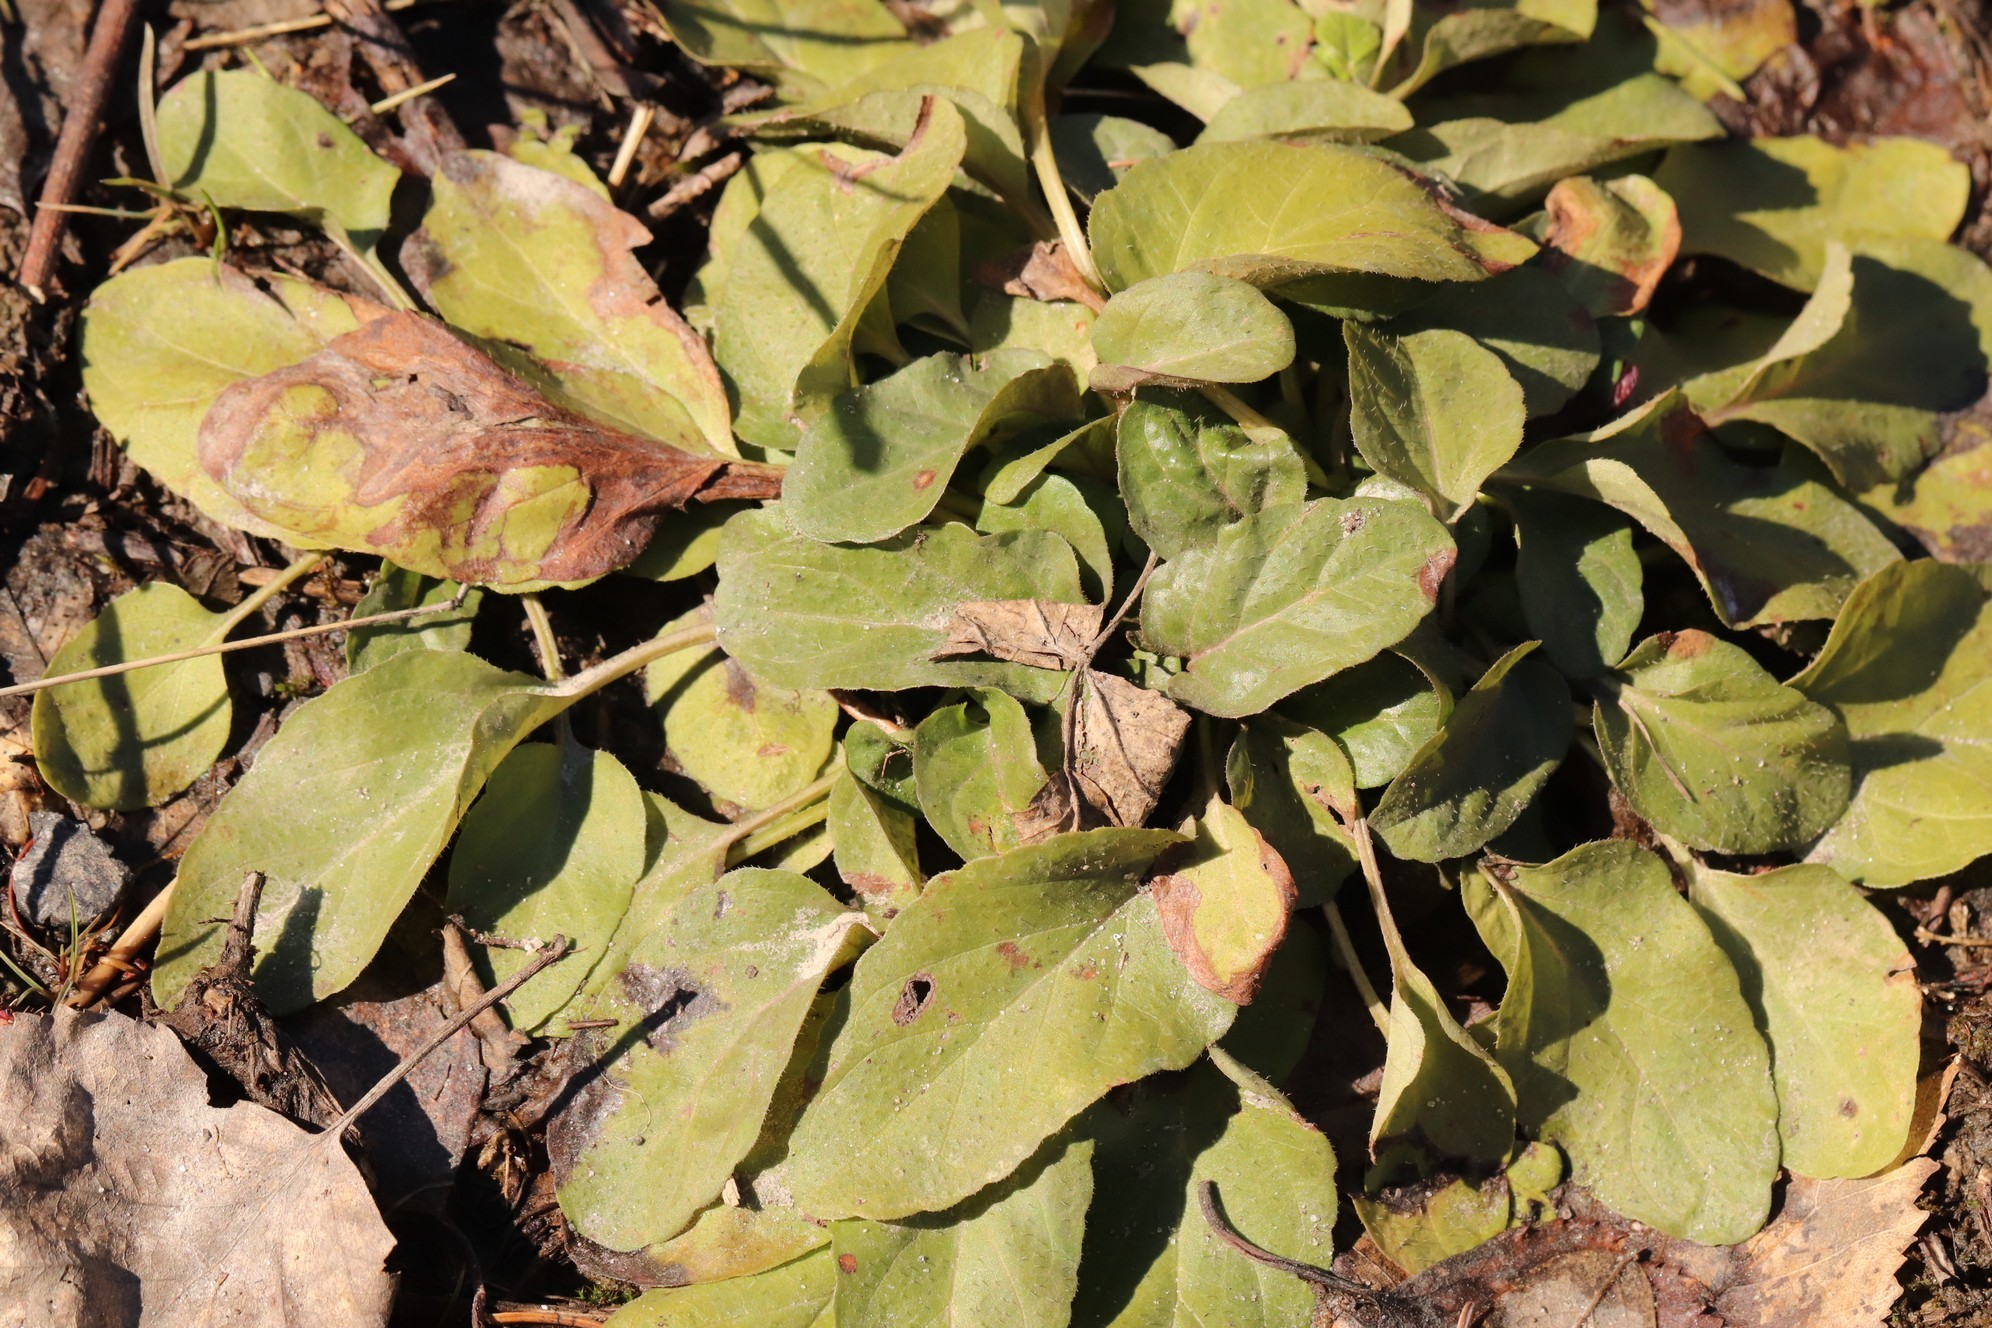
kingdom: Plantae
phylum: Tracheophyta
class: Magnoliopsida
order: Lamiales
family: Lamiaceae
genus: Prunella
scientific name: Prunella vulgaris
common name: Heal-all
